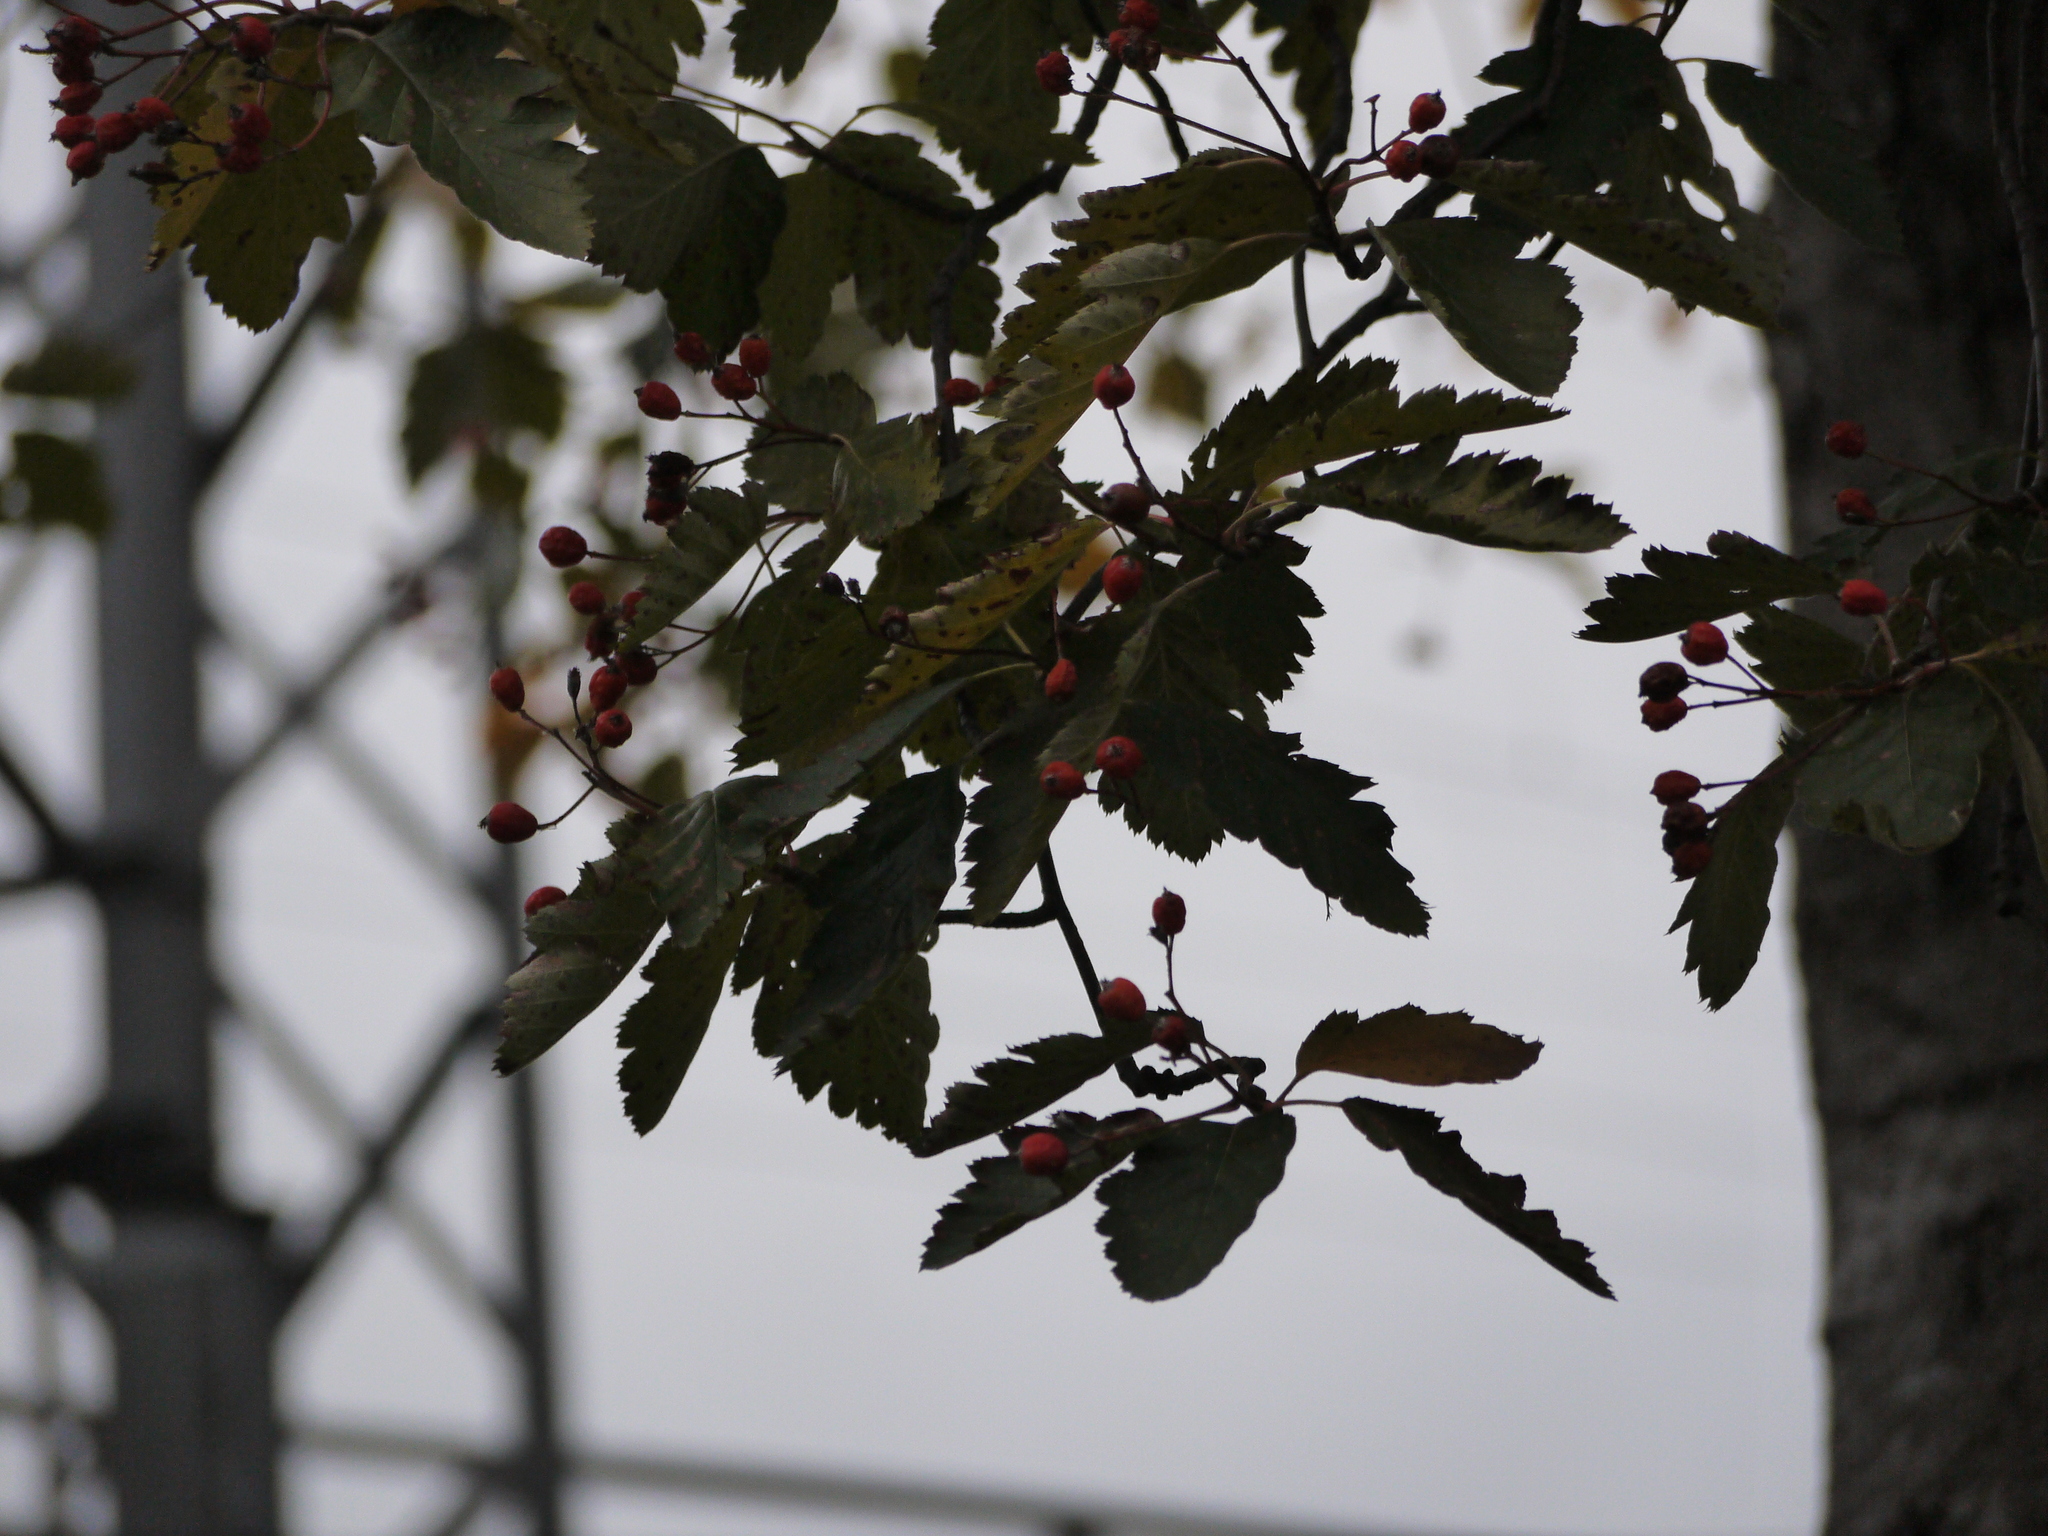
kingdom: Plantae
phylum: Tracheophyta
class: Magnoliopsida
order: Rosales
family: Rosaceae
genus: Scandosorbus
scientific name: Scandosorbus intermedia
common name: Swedish whitebeam
